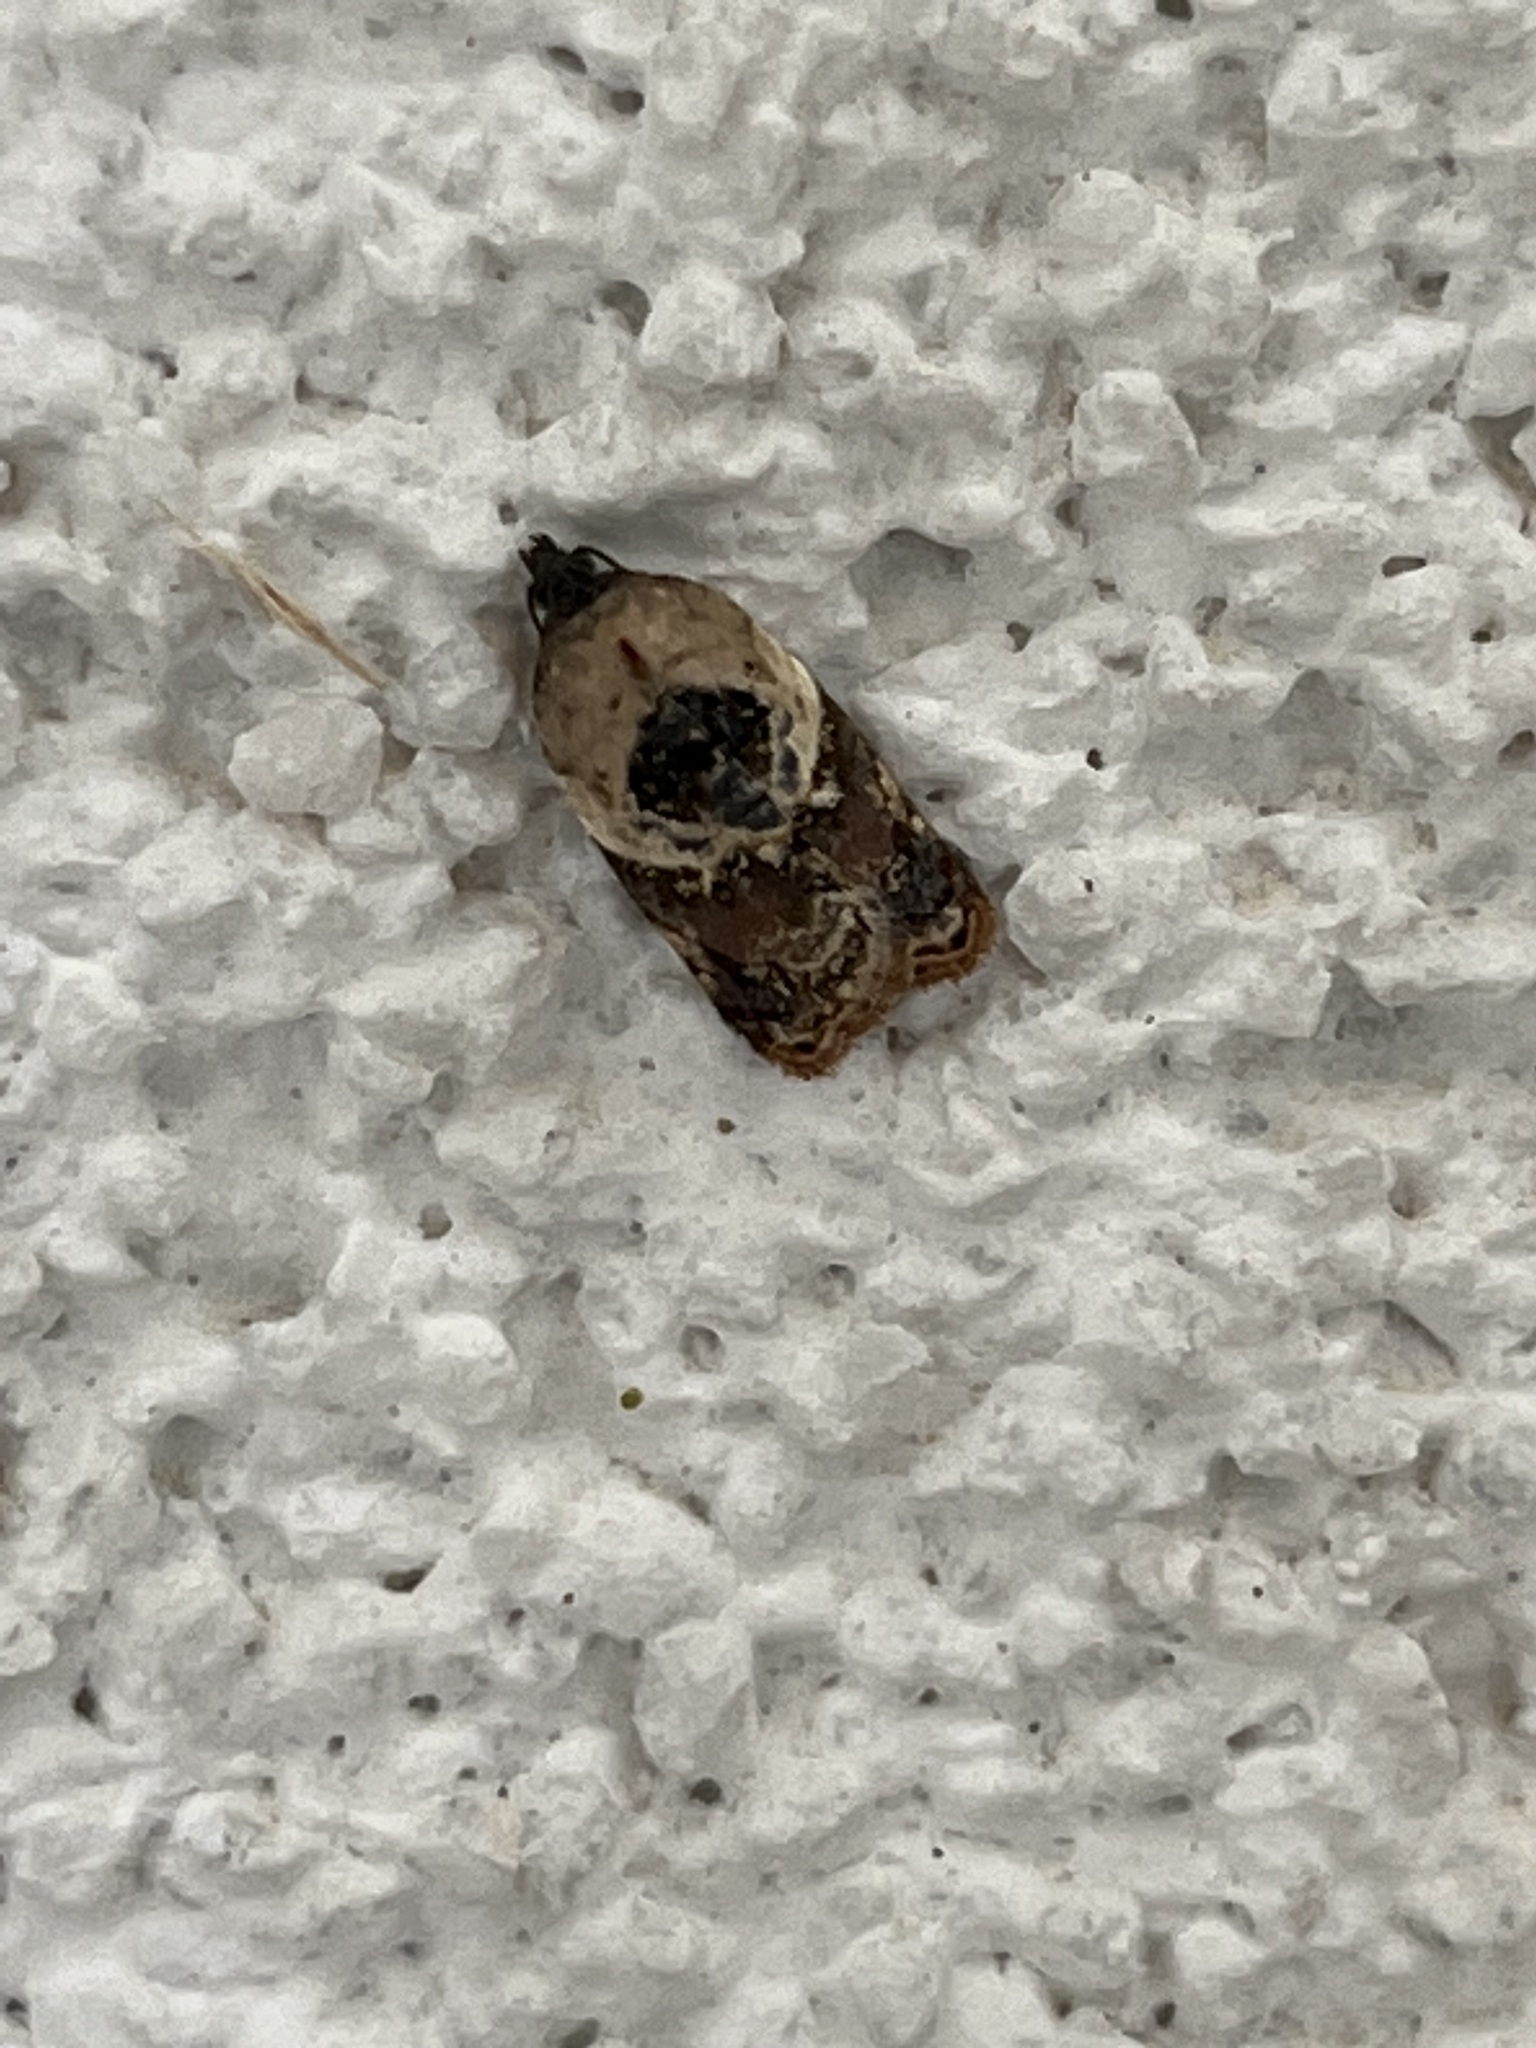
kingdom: Animalia
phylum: Arthropoda
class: Insecta
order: Lepidoptera
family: Tortricidae
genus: Acleris
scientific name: Acleris variegana
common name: Garden rose tortrix
